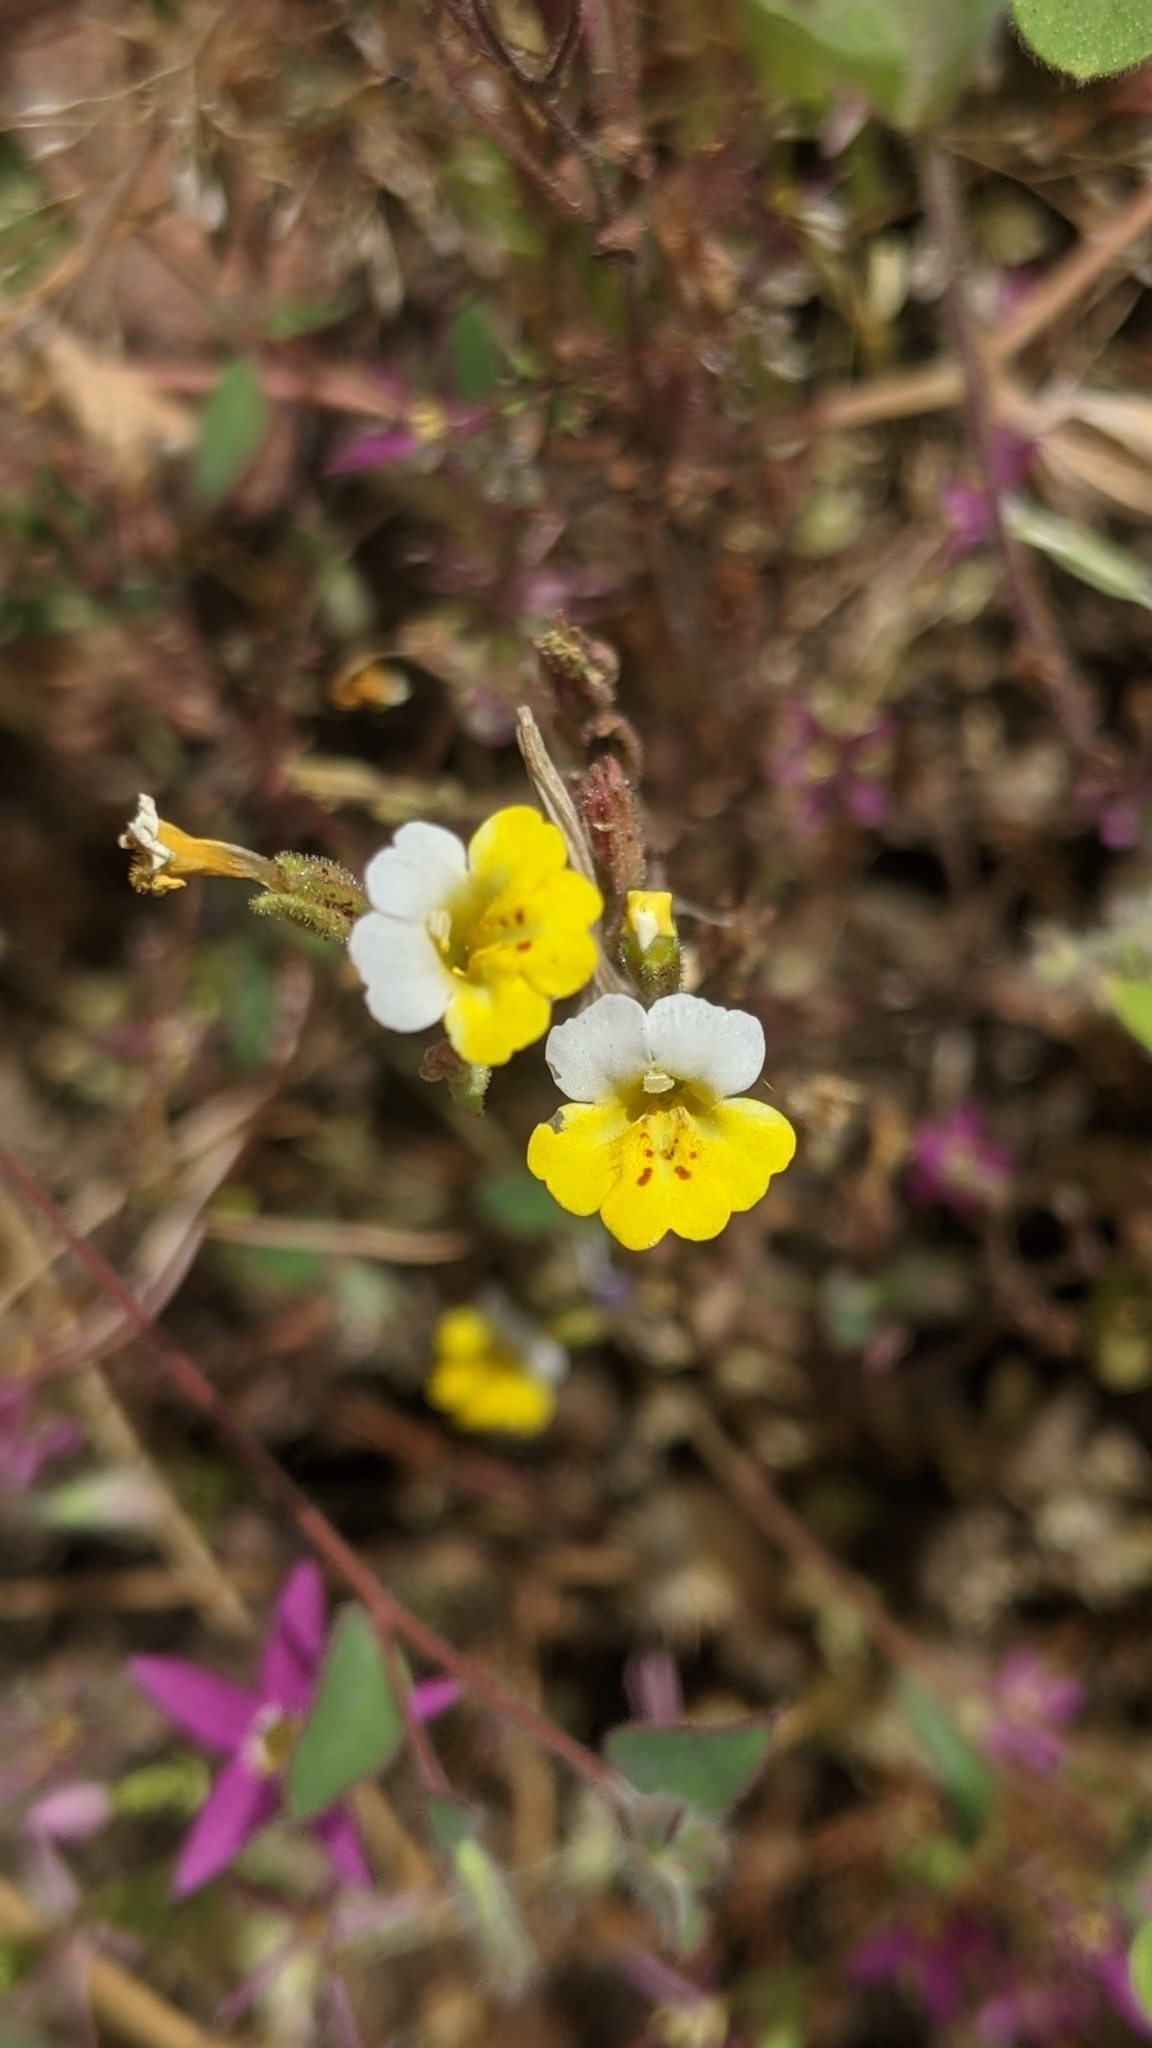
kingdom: Plantae
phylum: Tracheophyta
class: Magnoliopsida
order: Lamiales
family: Phrymaceae
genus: Erythranthe
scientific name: Erythranthe bicolor
